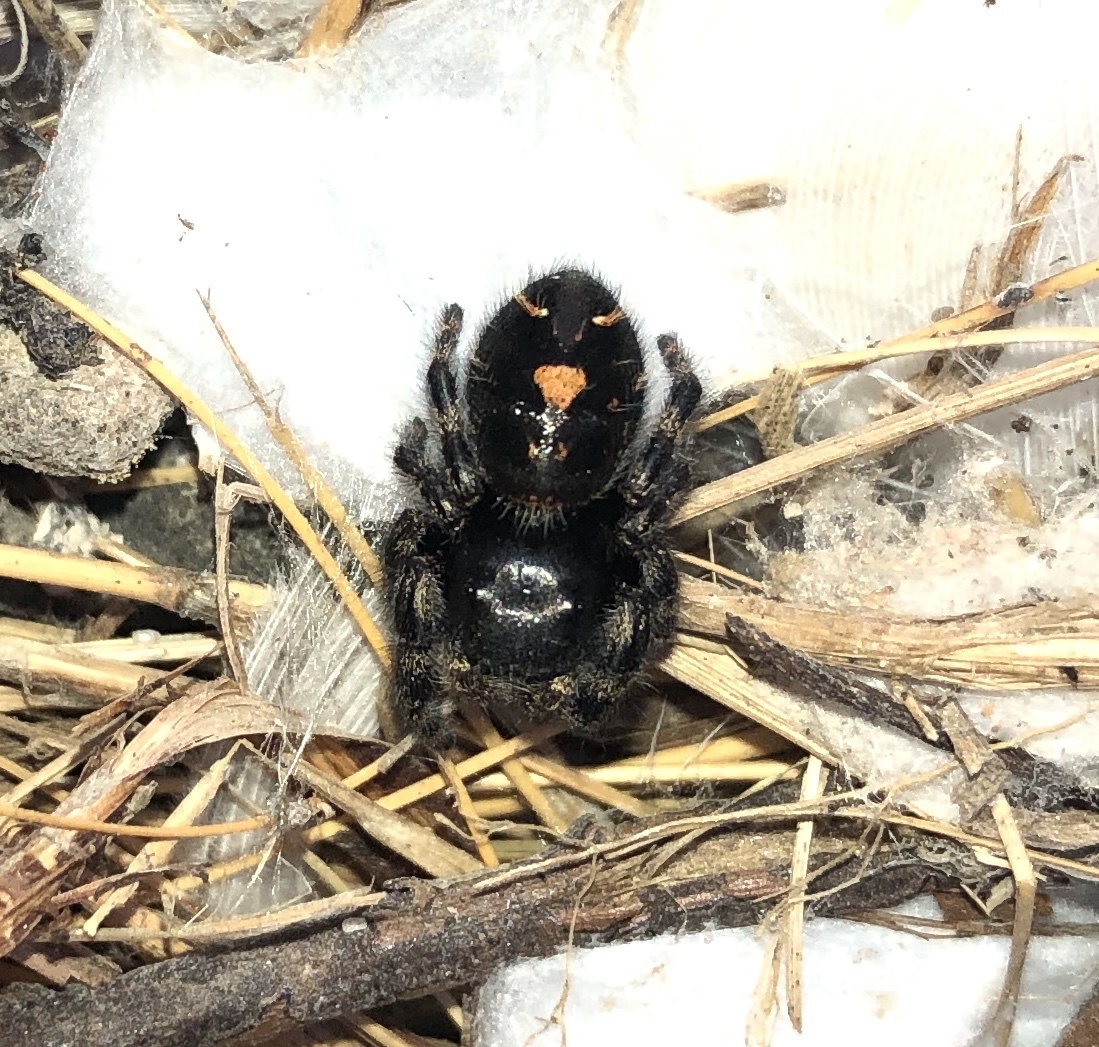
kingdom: Animalia
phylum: Arthropoda
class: Arachnida
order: Araneae
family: Salticidae
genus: Phidippus
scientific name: Phidippus audax
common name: Bold jumper
